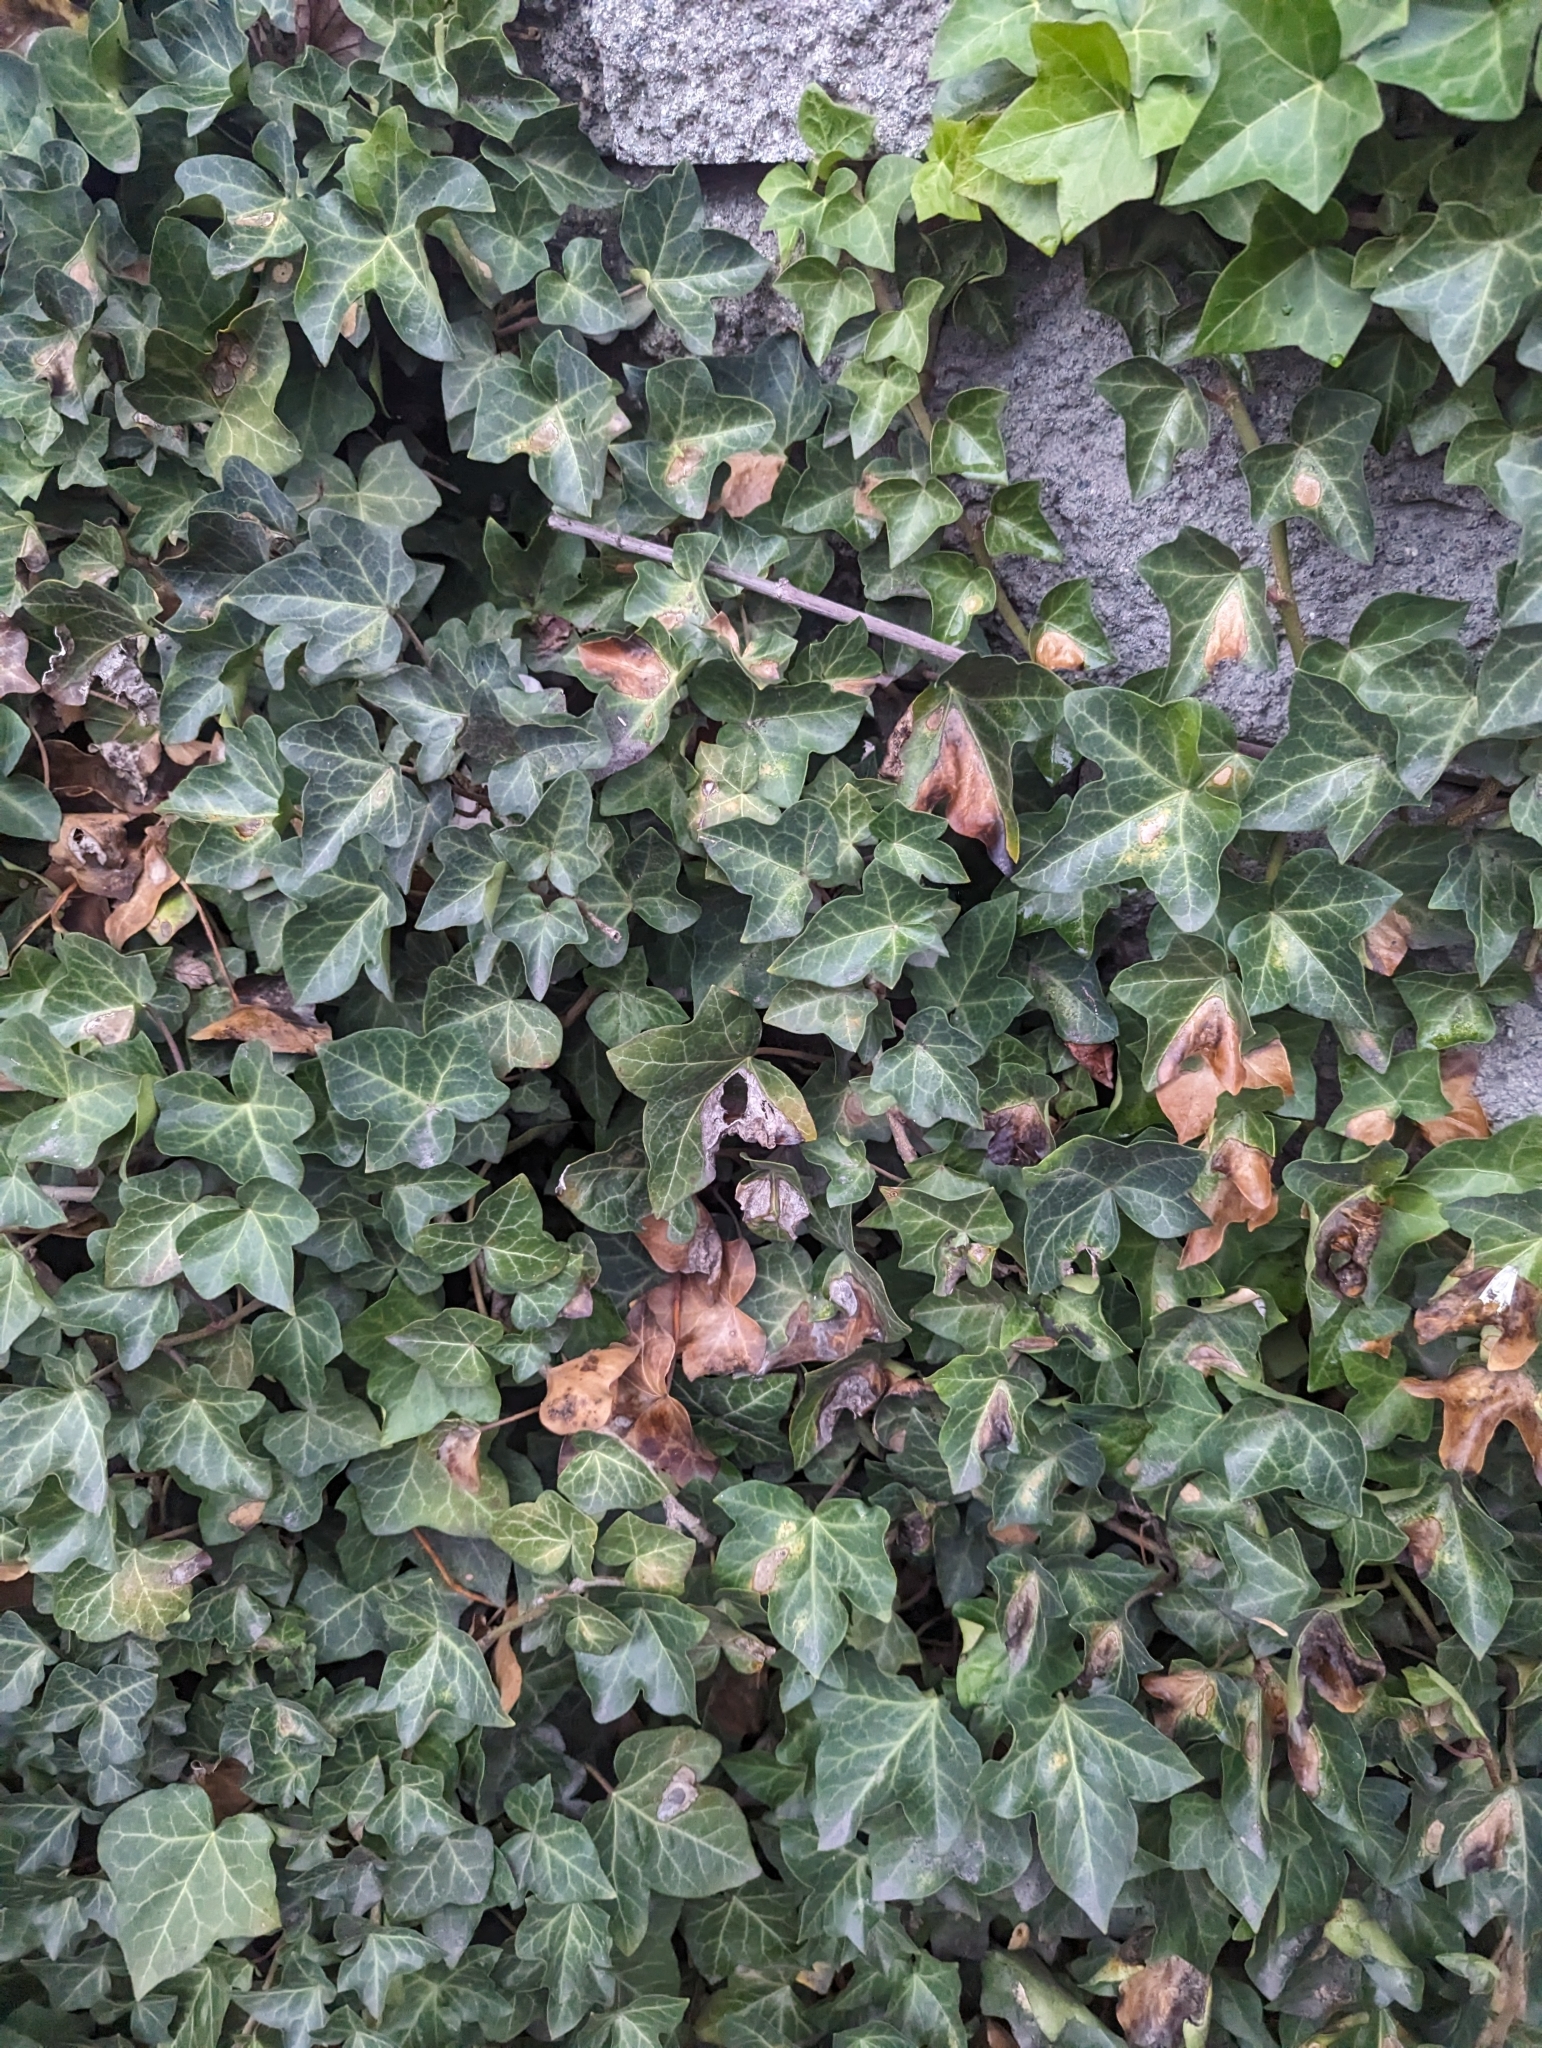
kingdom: Plantae
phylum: Tracheophyta
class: Magnoliopsida
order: Apiales
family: Araliaceae
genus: Hedera
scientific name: Hedera helix
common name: Ivy
